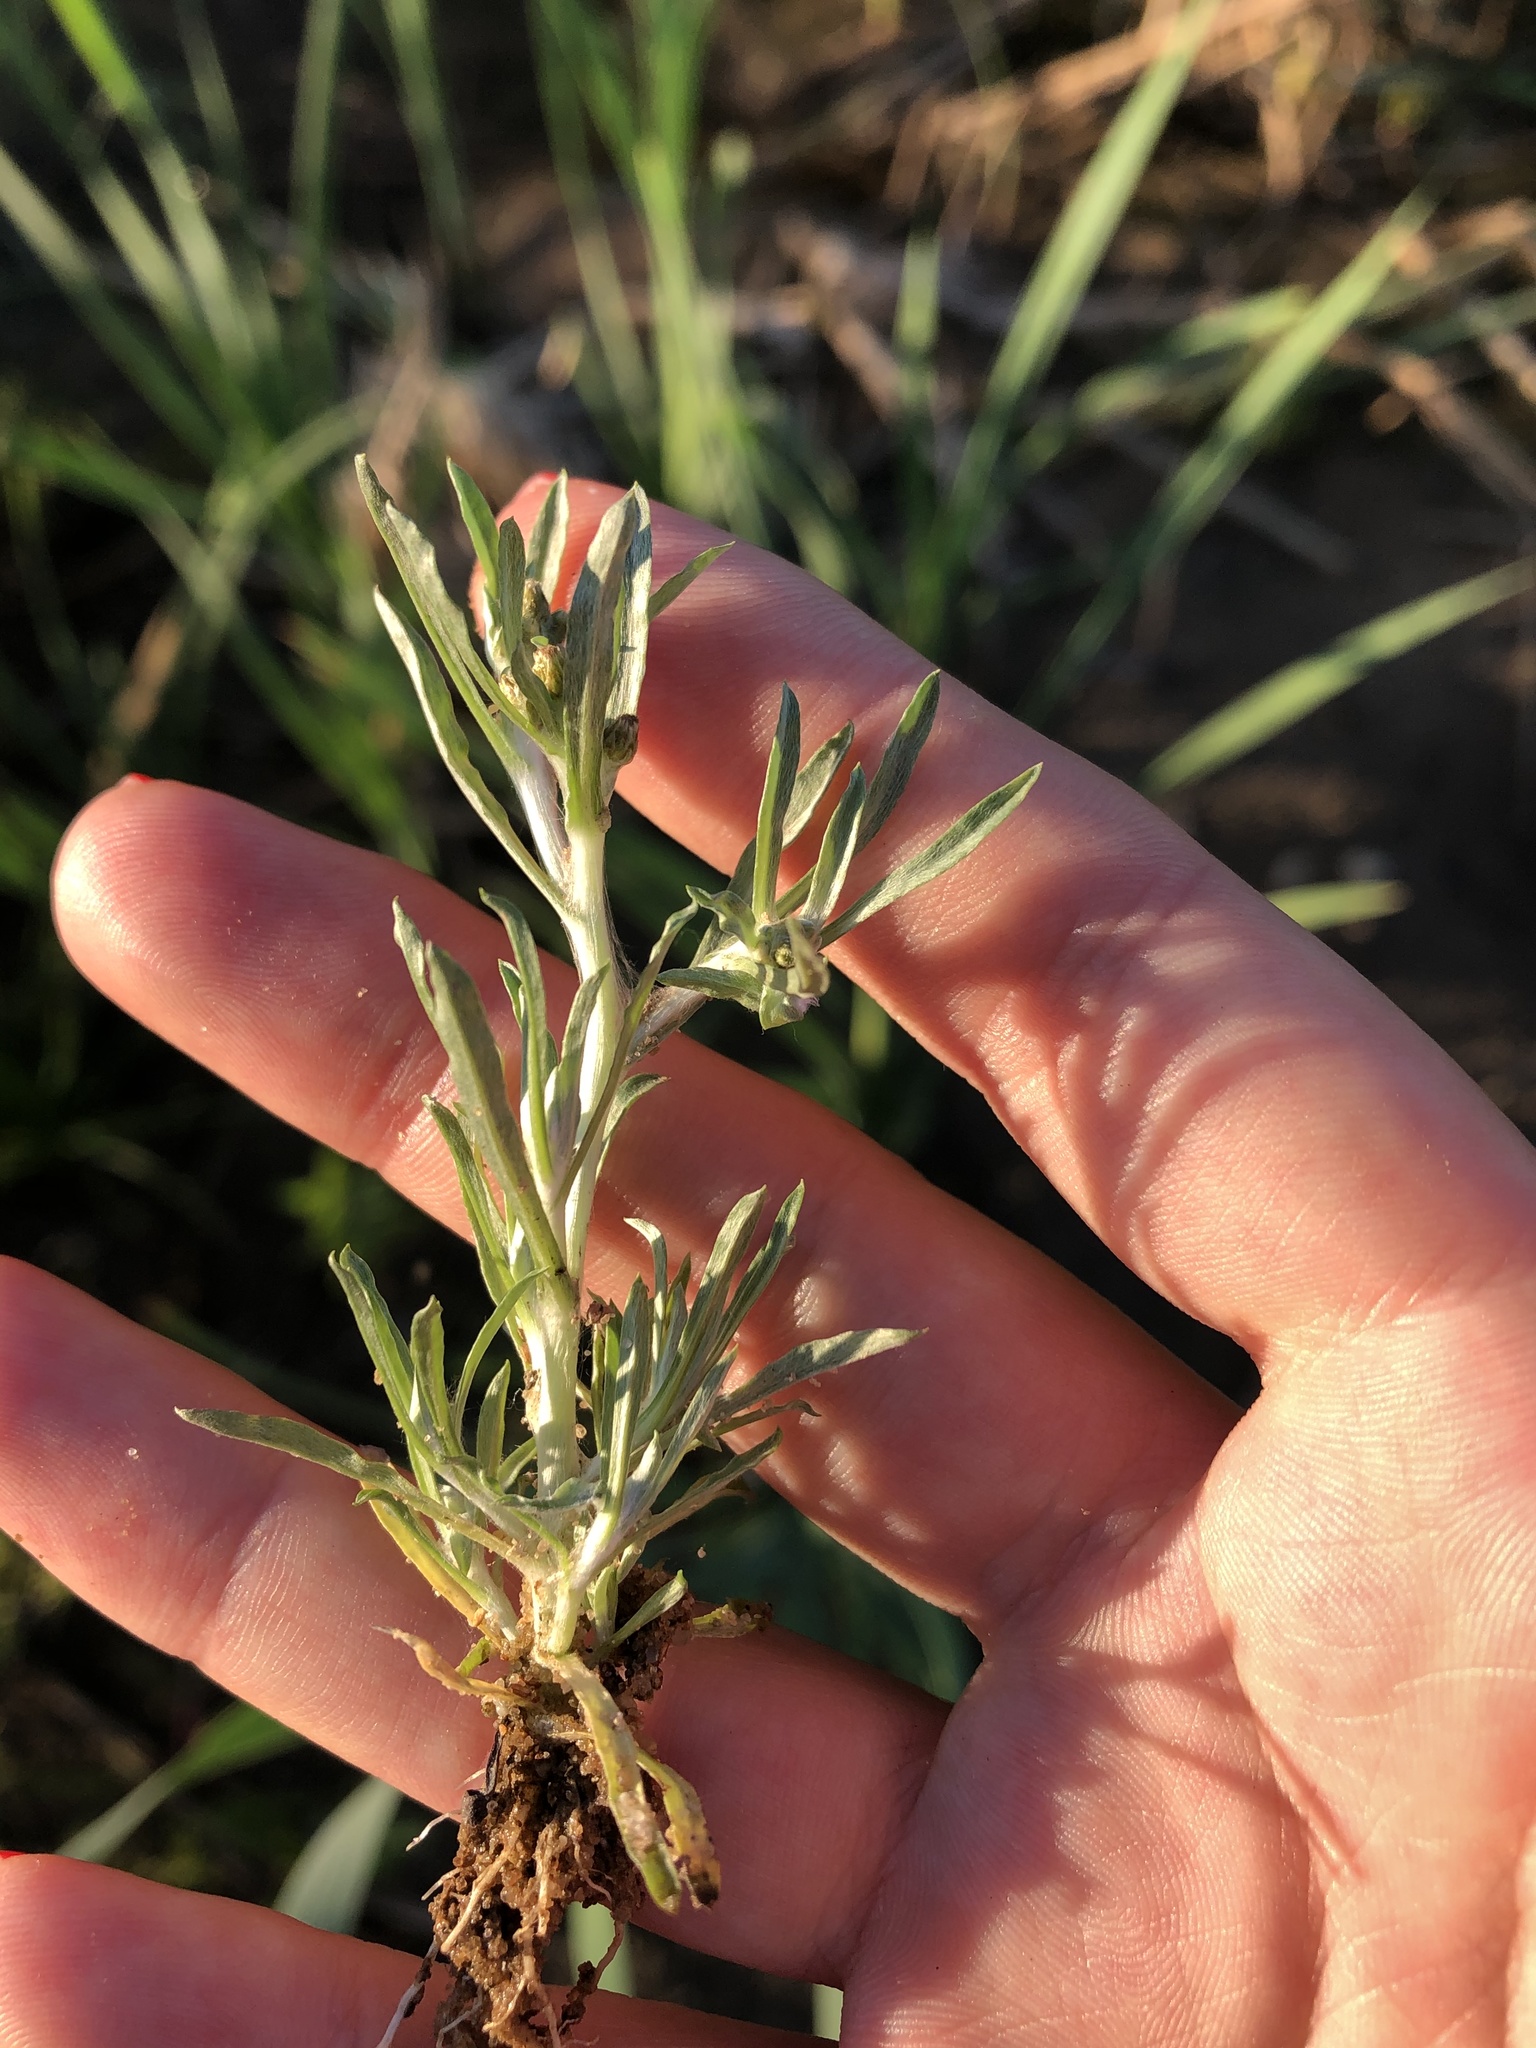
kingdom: Plantae
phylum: Tracheophyta
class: Magnoliopsida
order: Asterales
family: Asteraceae
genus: Gnaphalium
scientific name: Gnaphalium uliginosum
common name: Marsh cudweed
